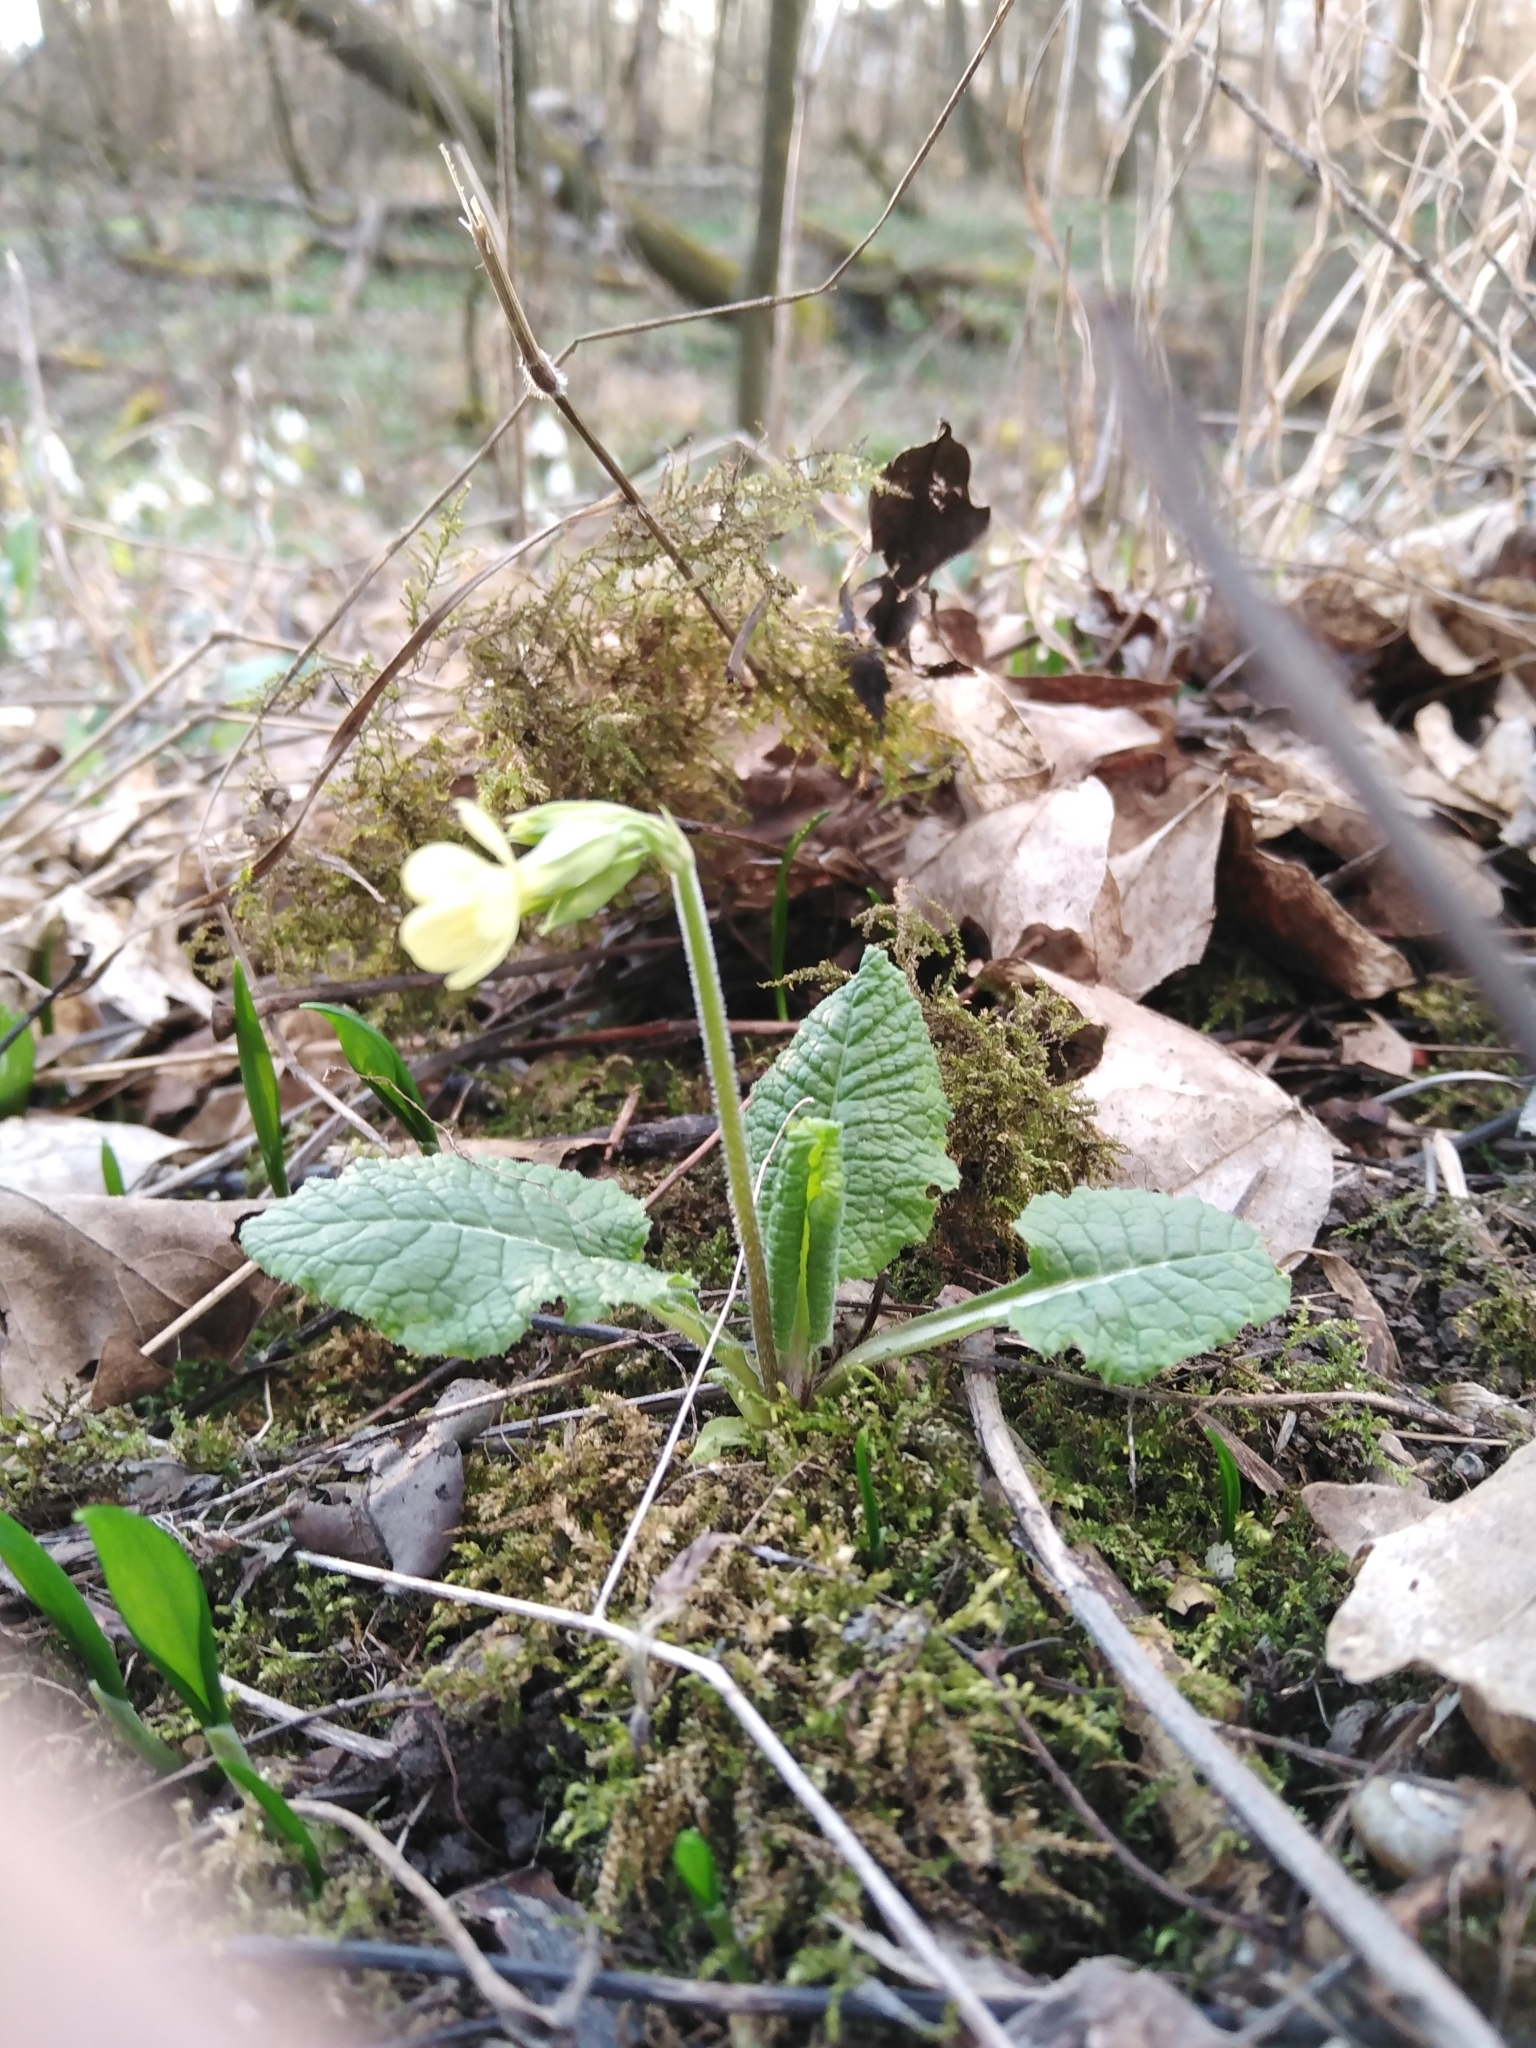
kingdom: Plantae
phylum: Tracheophyta
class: Magnoliopsida
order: Ericales
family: Primulaceae
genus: Primula
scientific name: Primula elatior
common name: Oxlip
